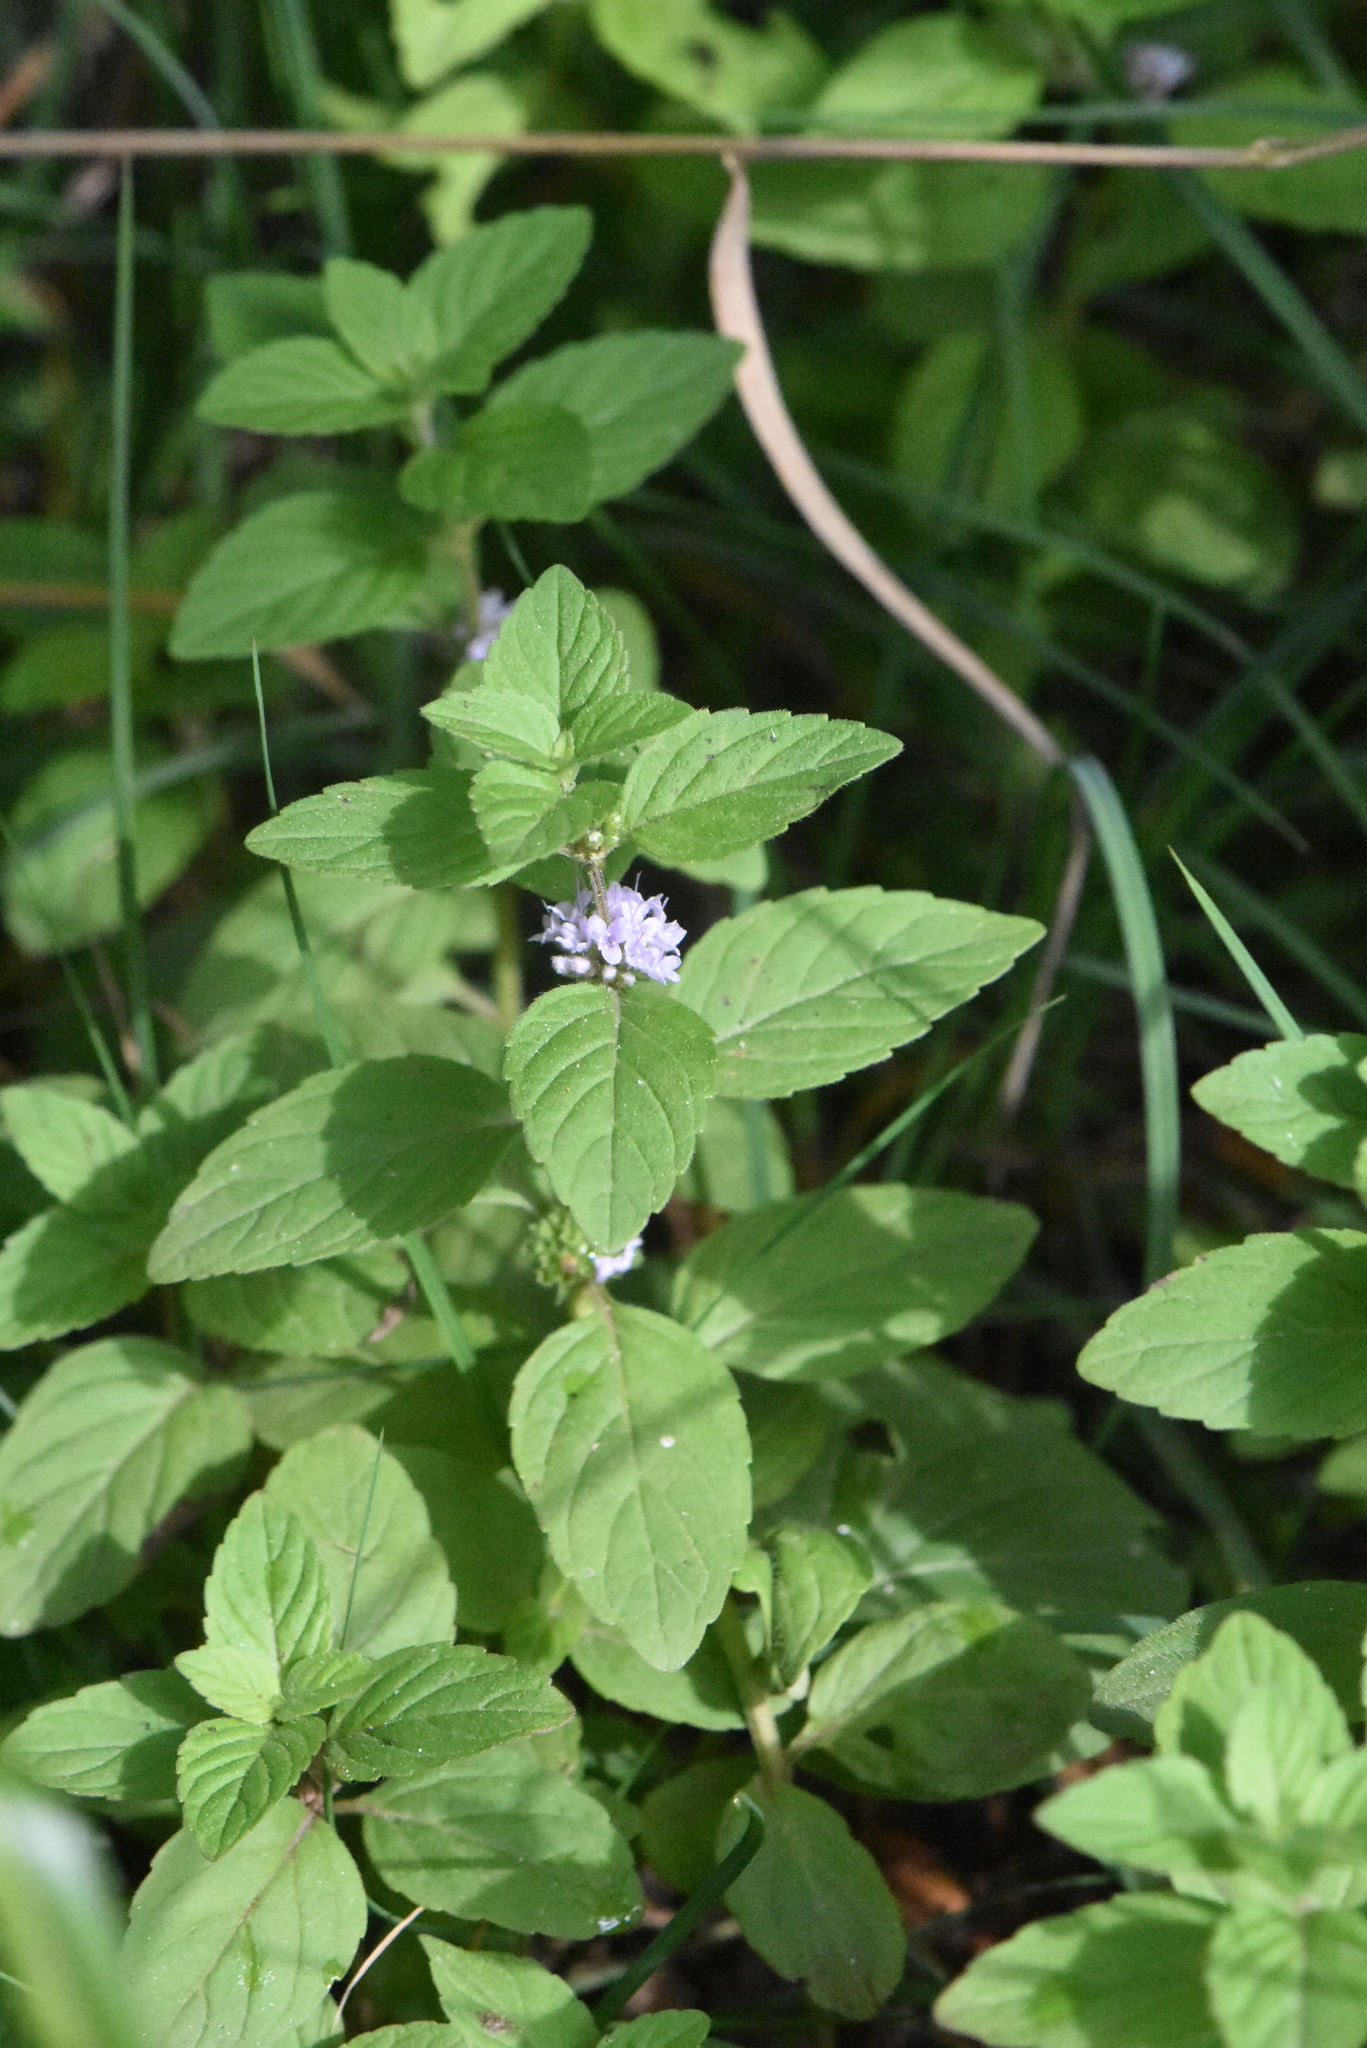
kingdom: Plantae
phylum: Tracheophyta
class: Magnoliopsida
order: Lamiales
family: Lamiaceae
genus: Mentha
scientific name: Mentha arvensis
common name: Corn mint
